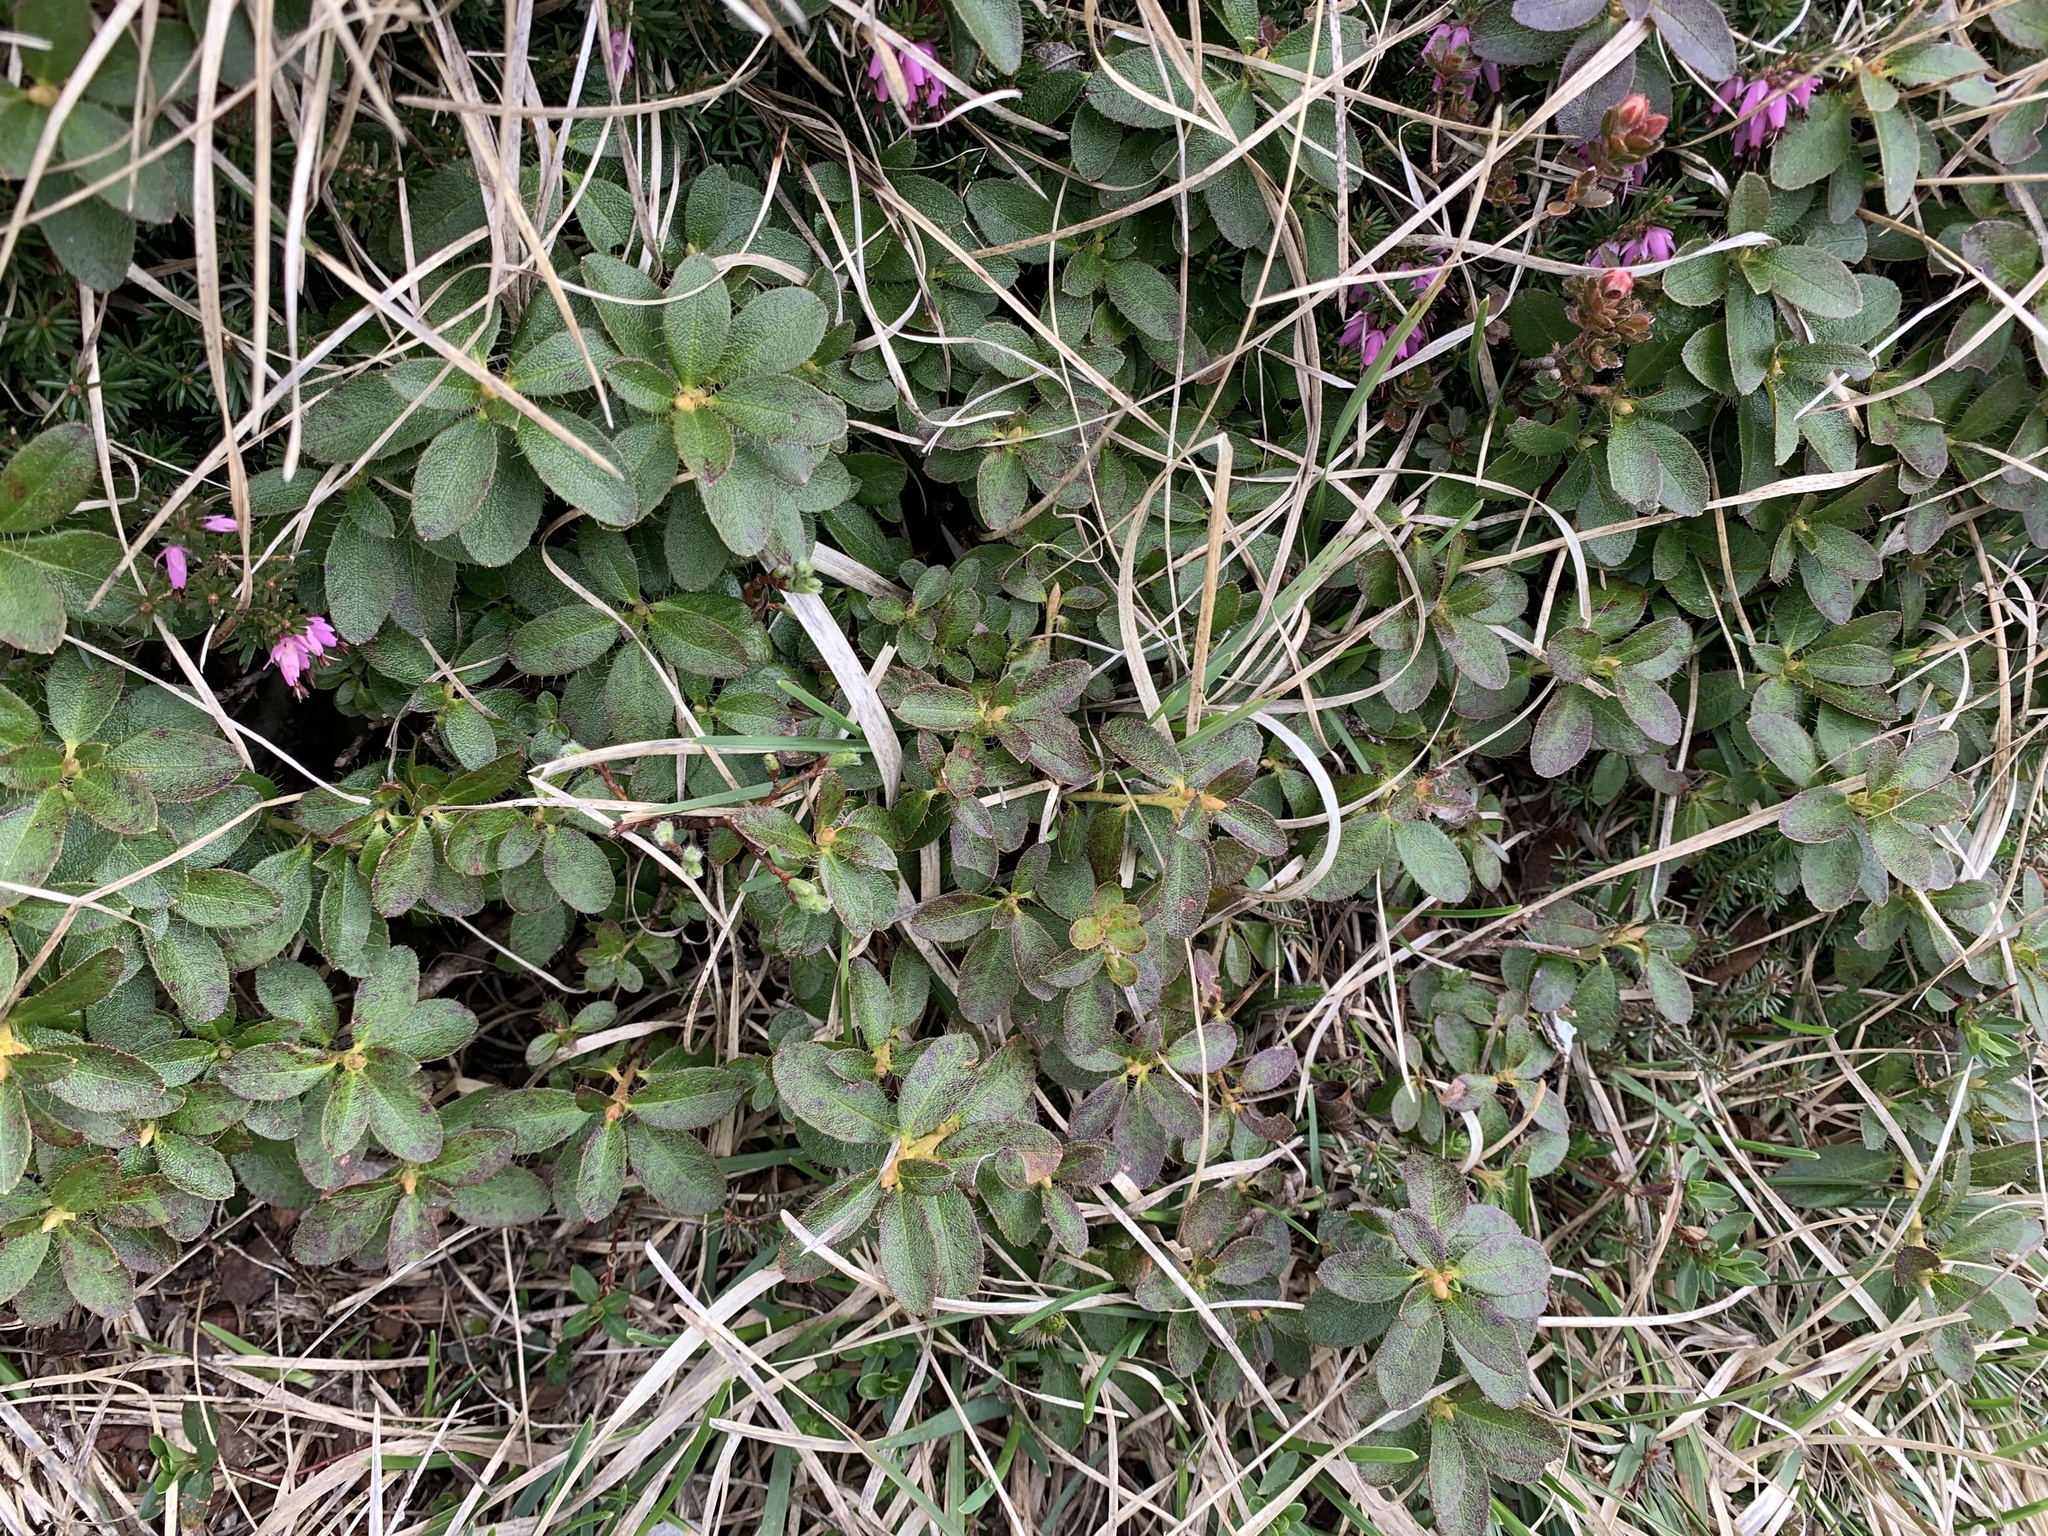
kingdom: Plantae
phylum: Tracheophyta
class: Magnoliopsida
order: Ericales
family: Ericaceae
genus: Rhododendron
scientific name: Rhododendron hirsutum
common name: Hairy alpenrose
